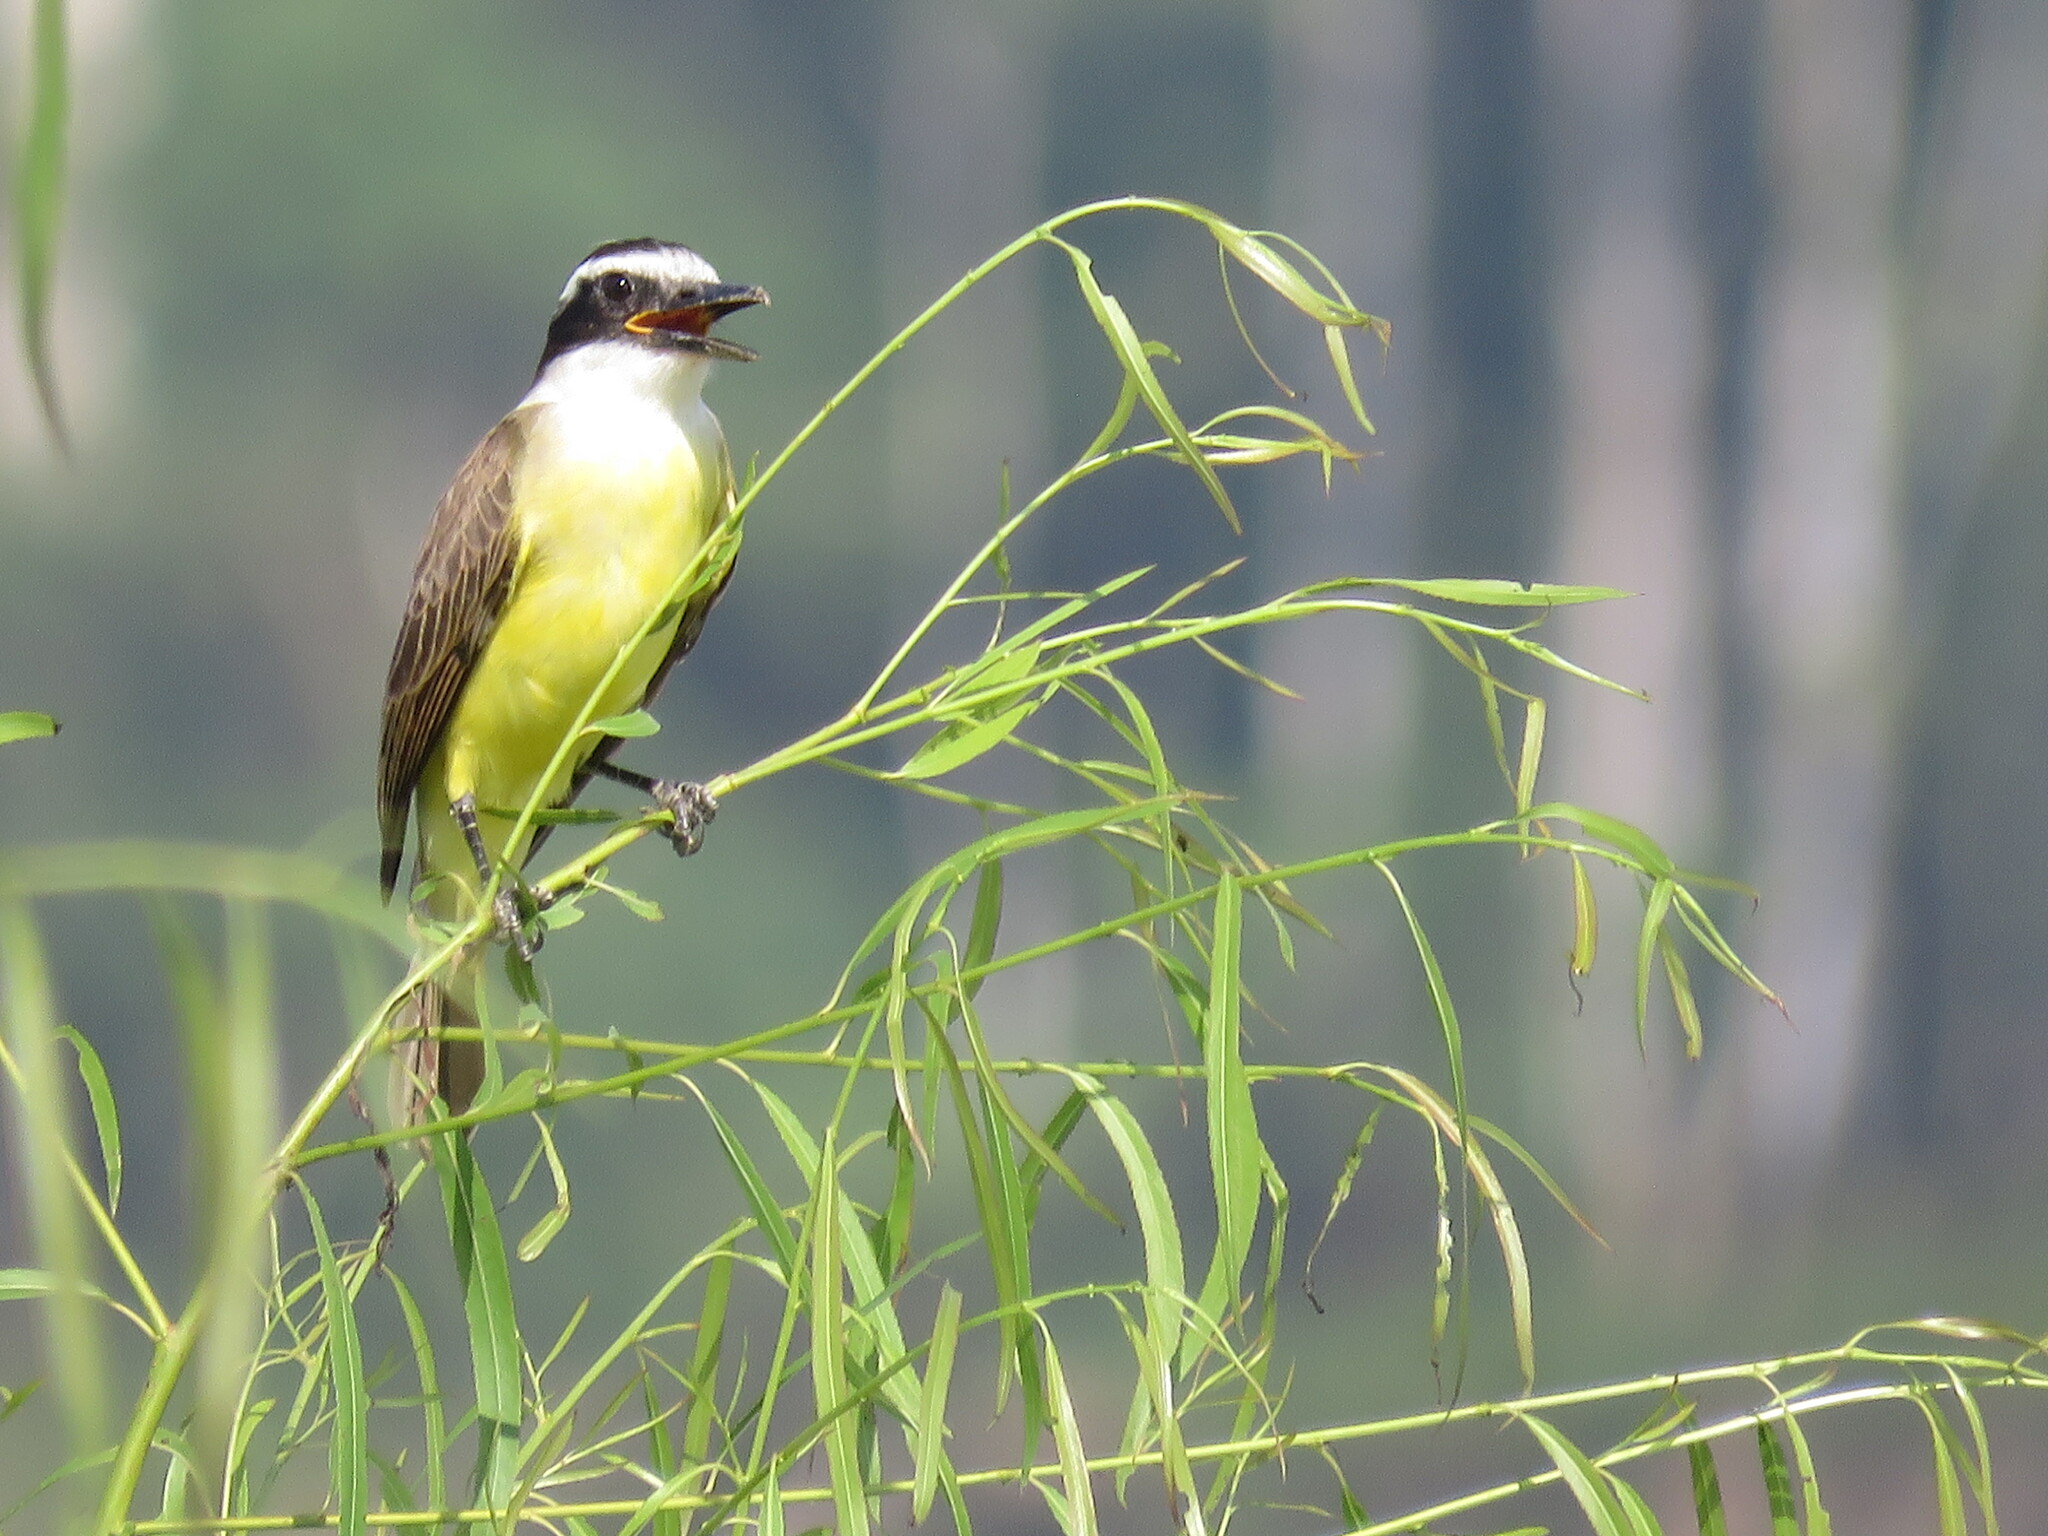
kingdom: Animalia
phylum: Chordata
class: Aves
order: Passeriformes
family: Tyrannidae
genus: Pitangus
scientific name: Pitangus sulphuratus
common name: Great kiskadee
